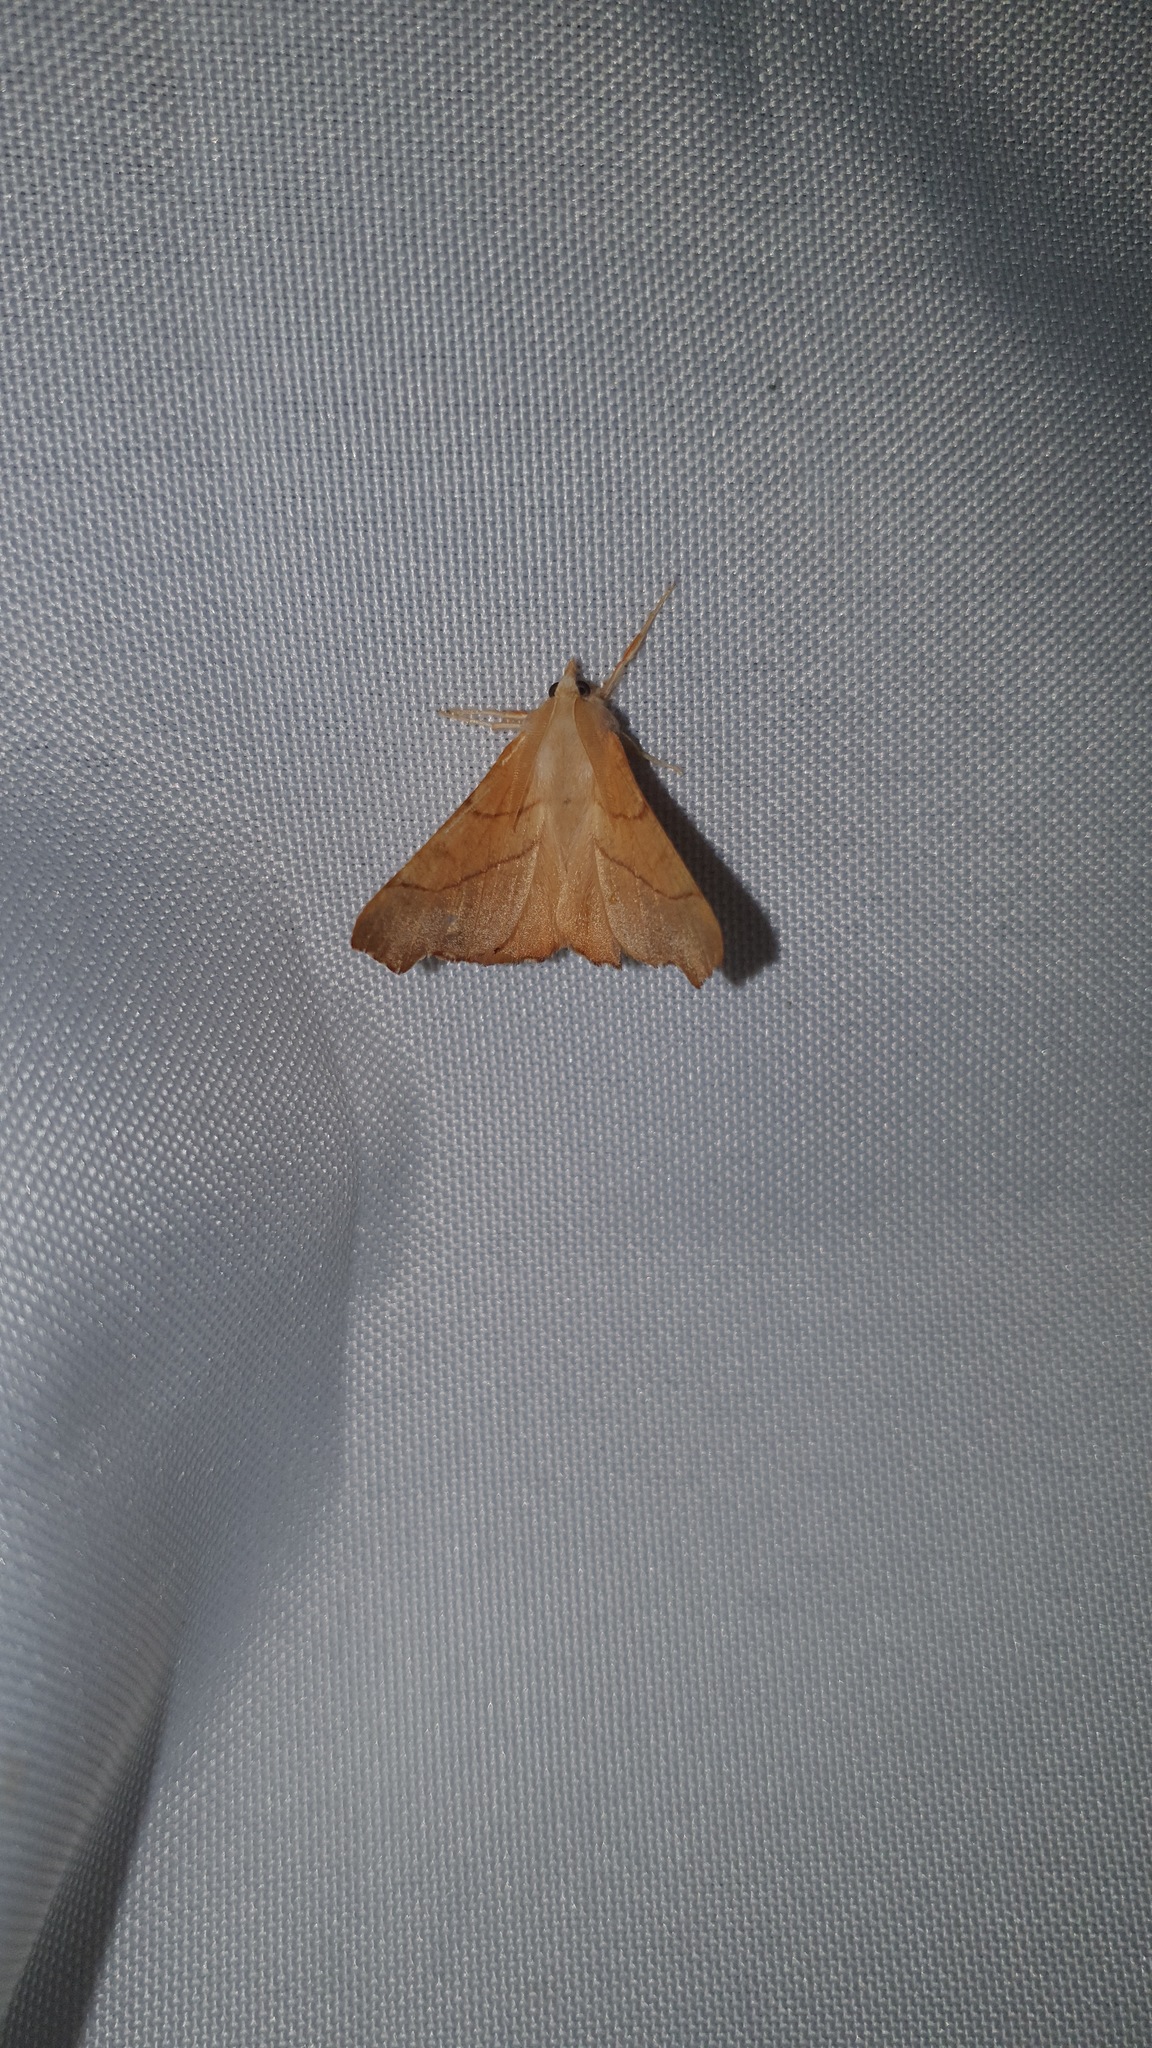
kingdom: Animalia
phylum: Arthropoda
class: Insecta
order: Lepidoptera
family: Geometridae
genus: Ennomos
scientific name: Ennomos fuscantaria
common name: Dusky thorn
